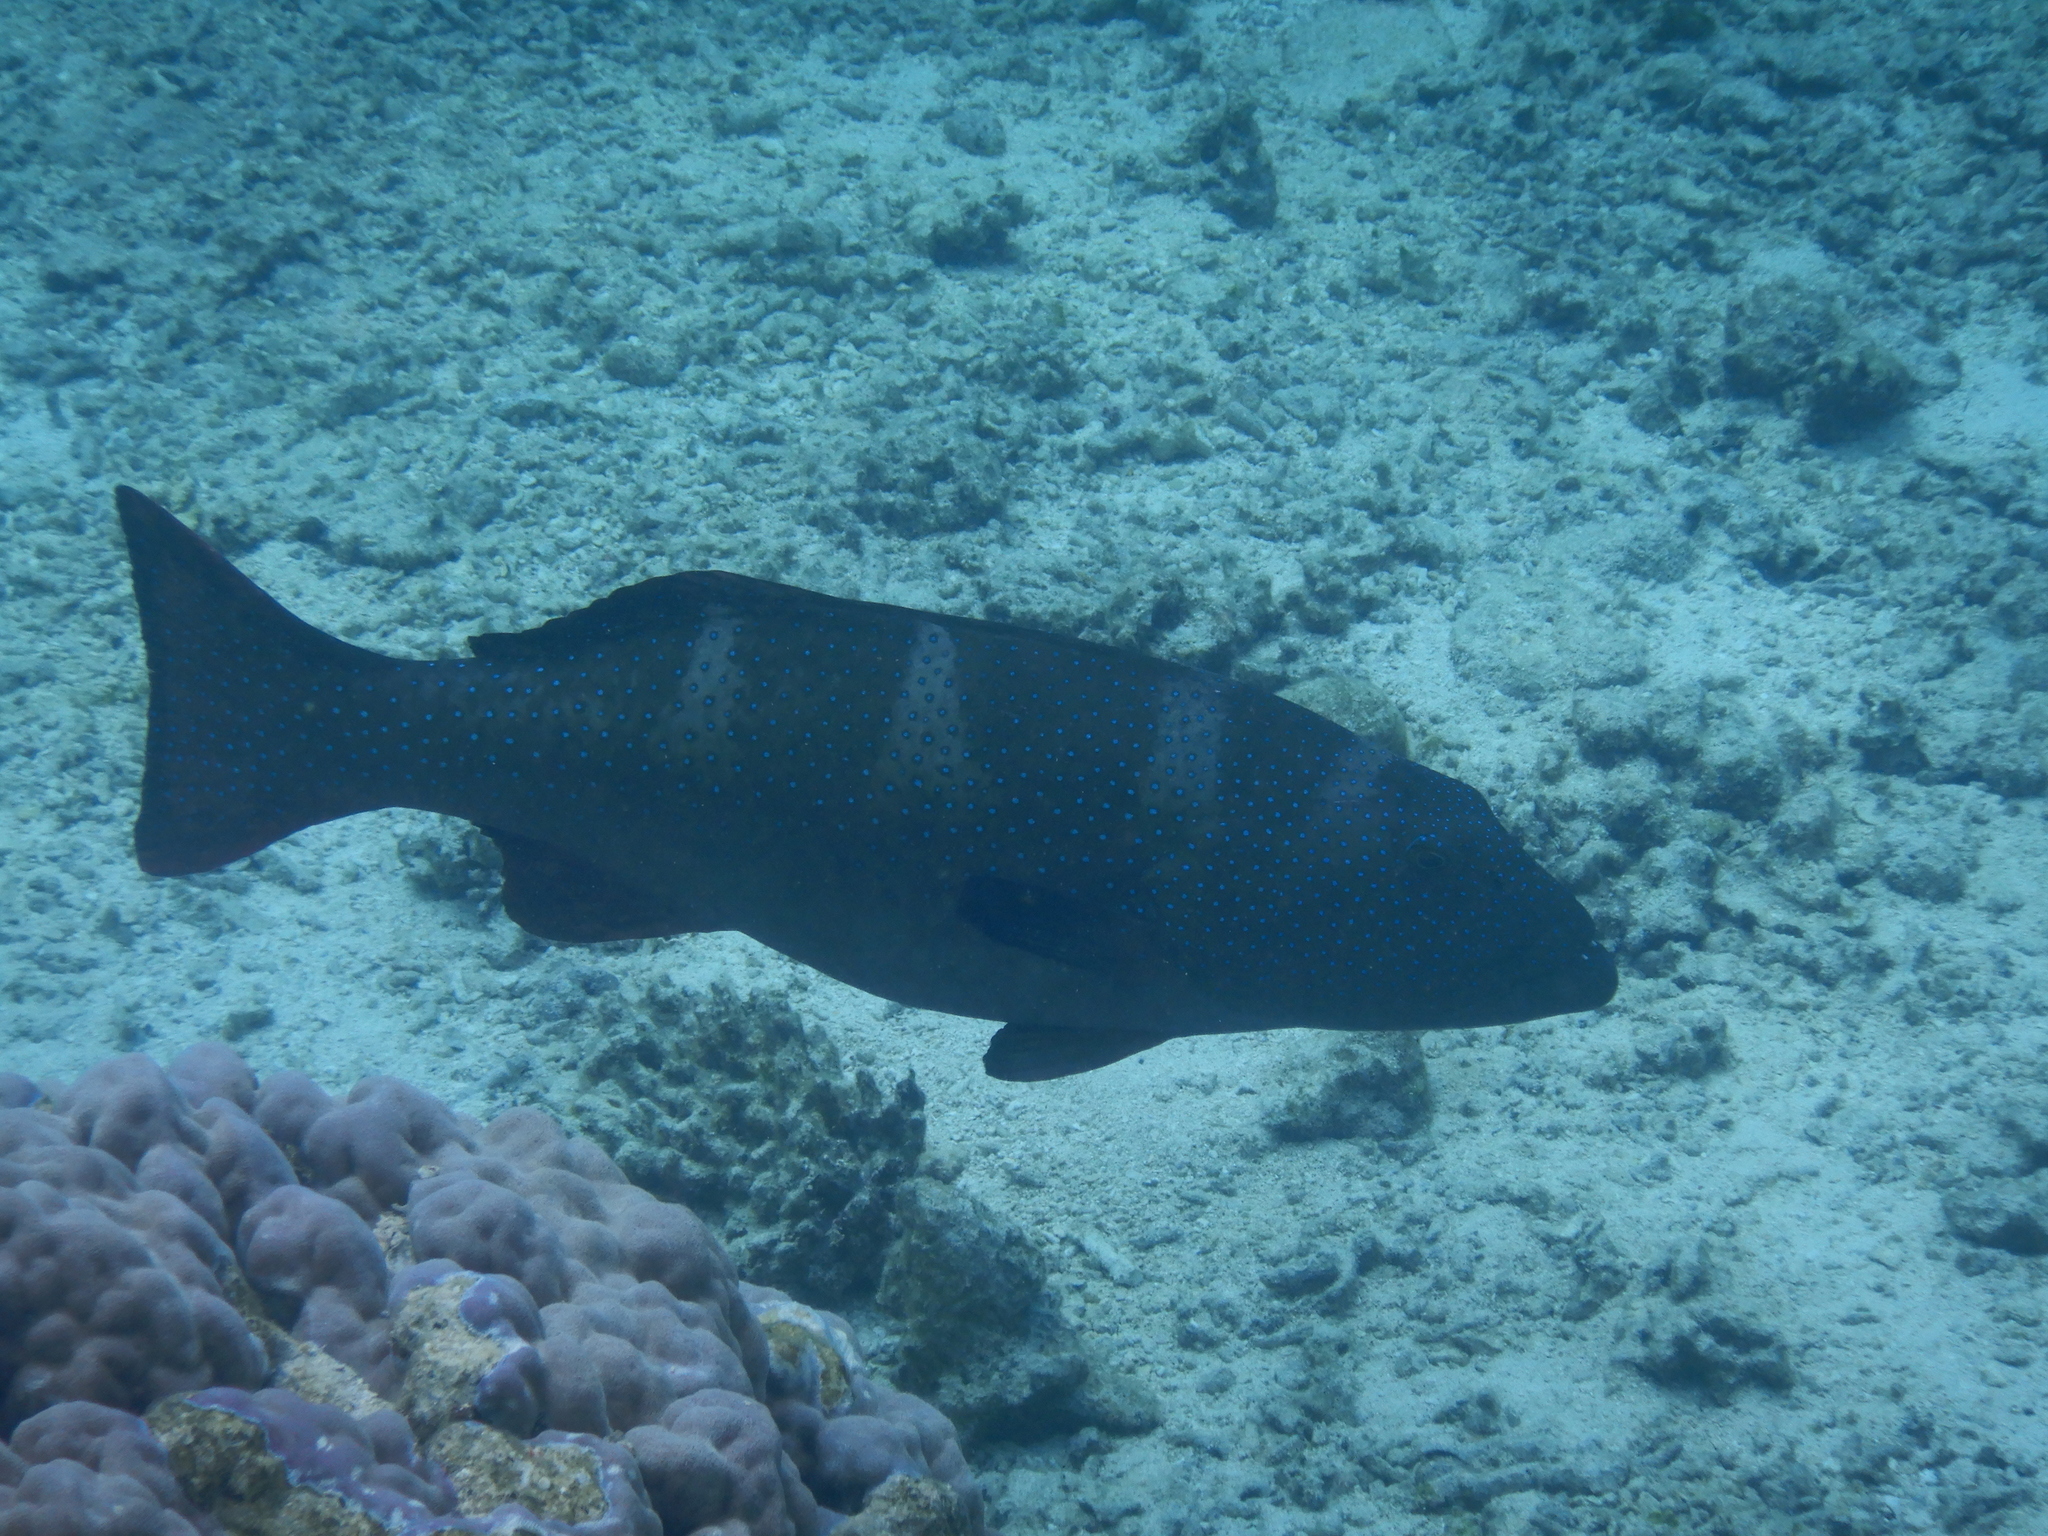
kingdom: Animalia
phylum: Chordata
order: Perciformes
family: Serranidae
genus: Plectropomus
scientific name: Plectropomus laevis
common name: Chinese footballer
